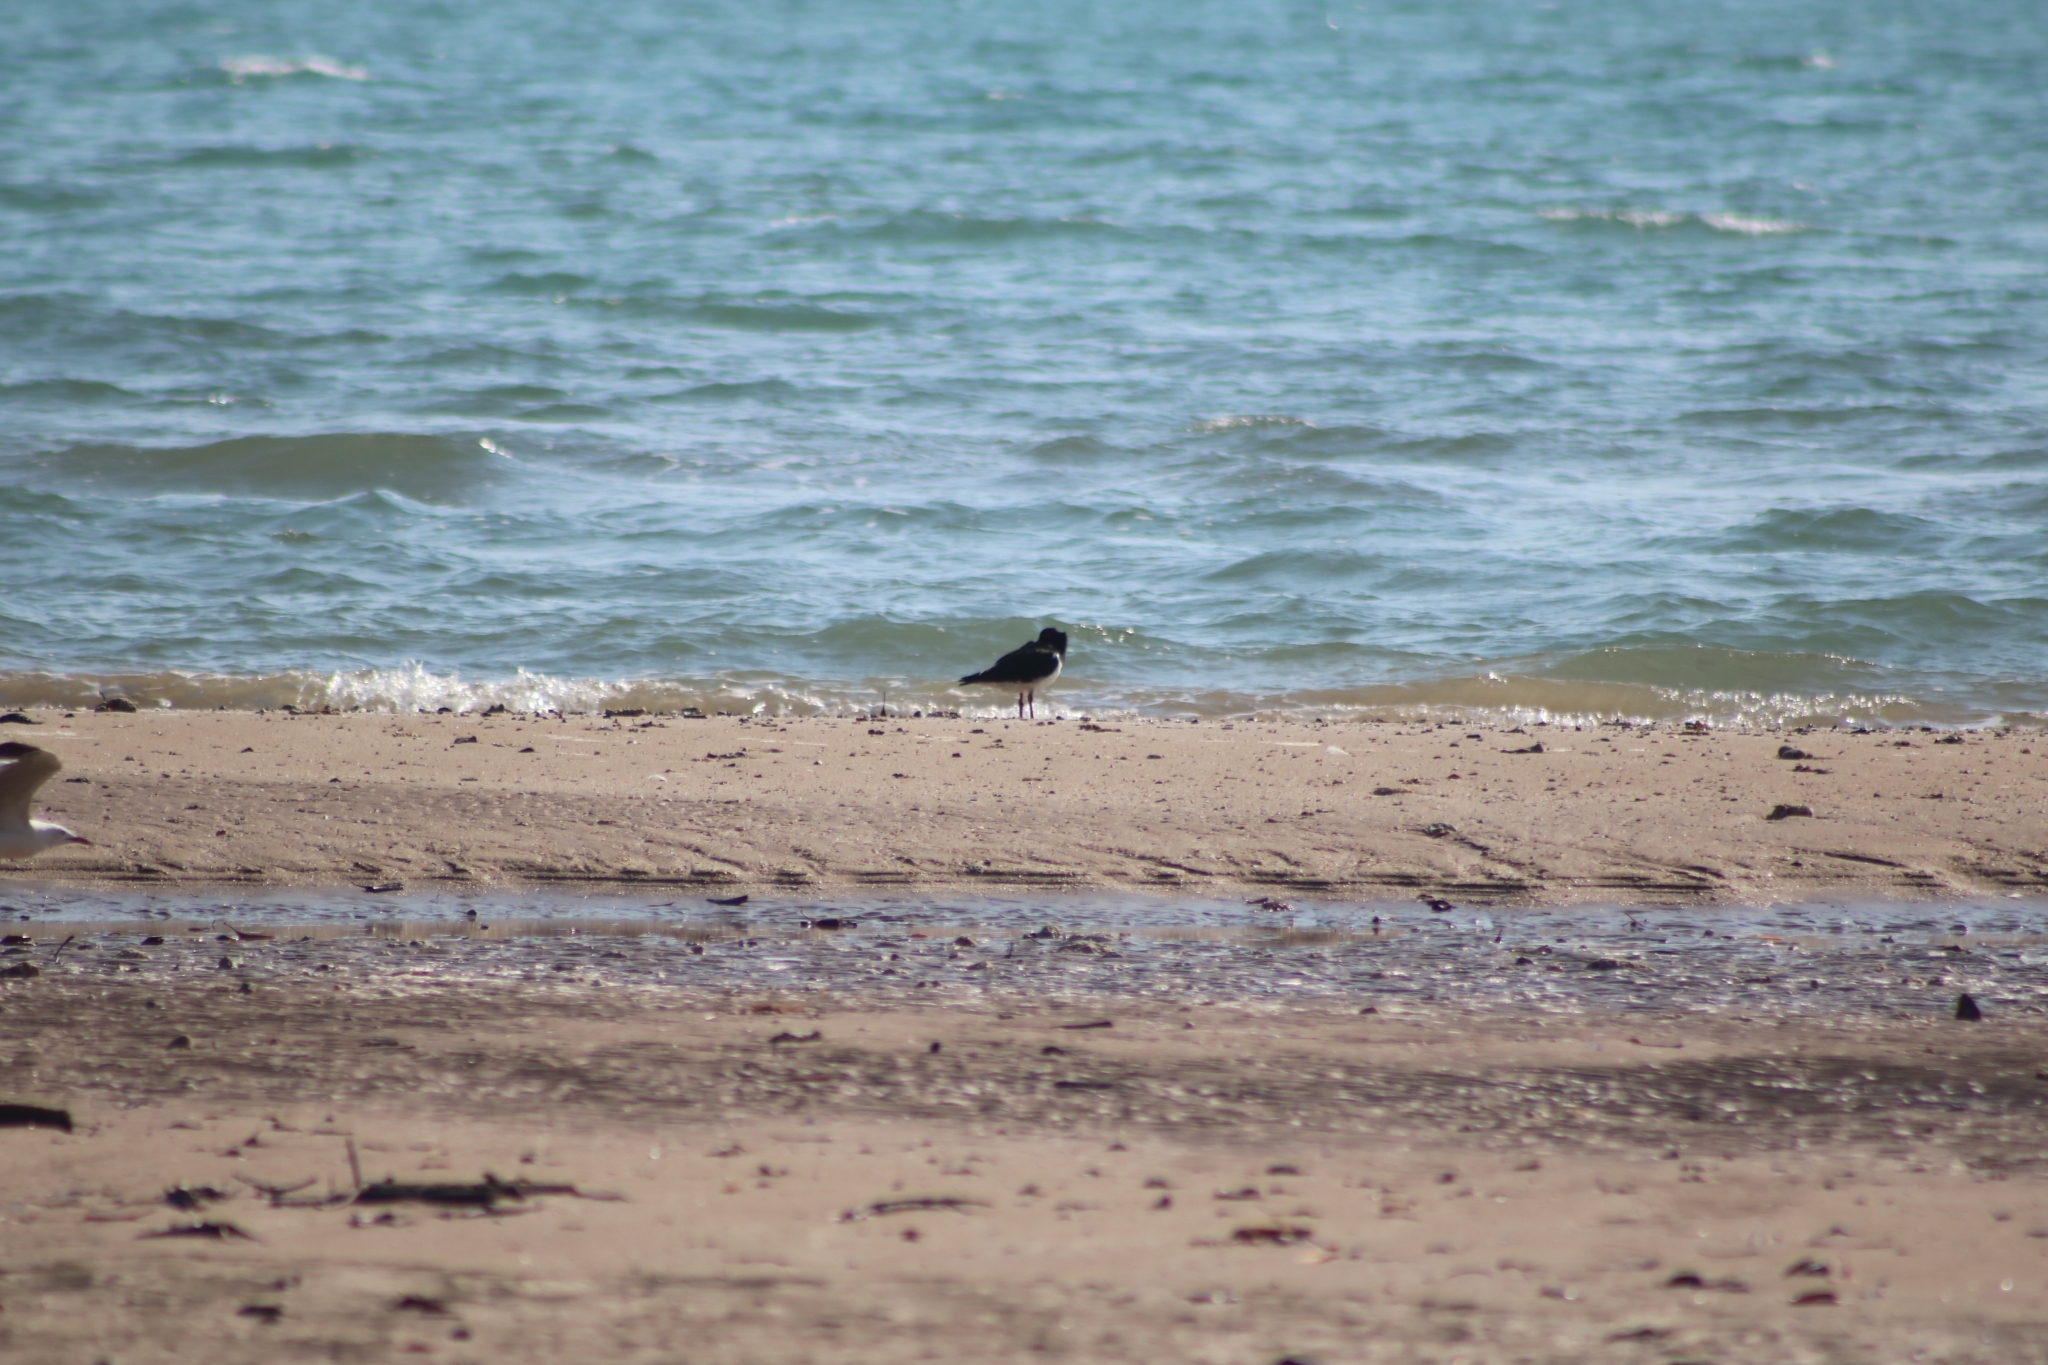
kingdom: Animalia
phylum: Chordata
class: Aves
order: Charadriiformes
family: Haematopodidae
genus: Haematopus
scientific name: Haematopus longirostris
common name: Pied oystercatcher
